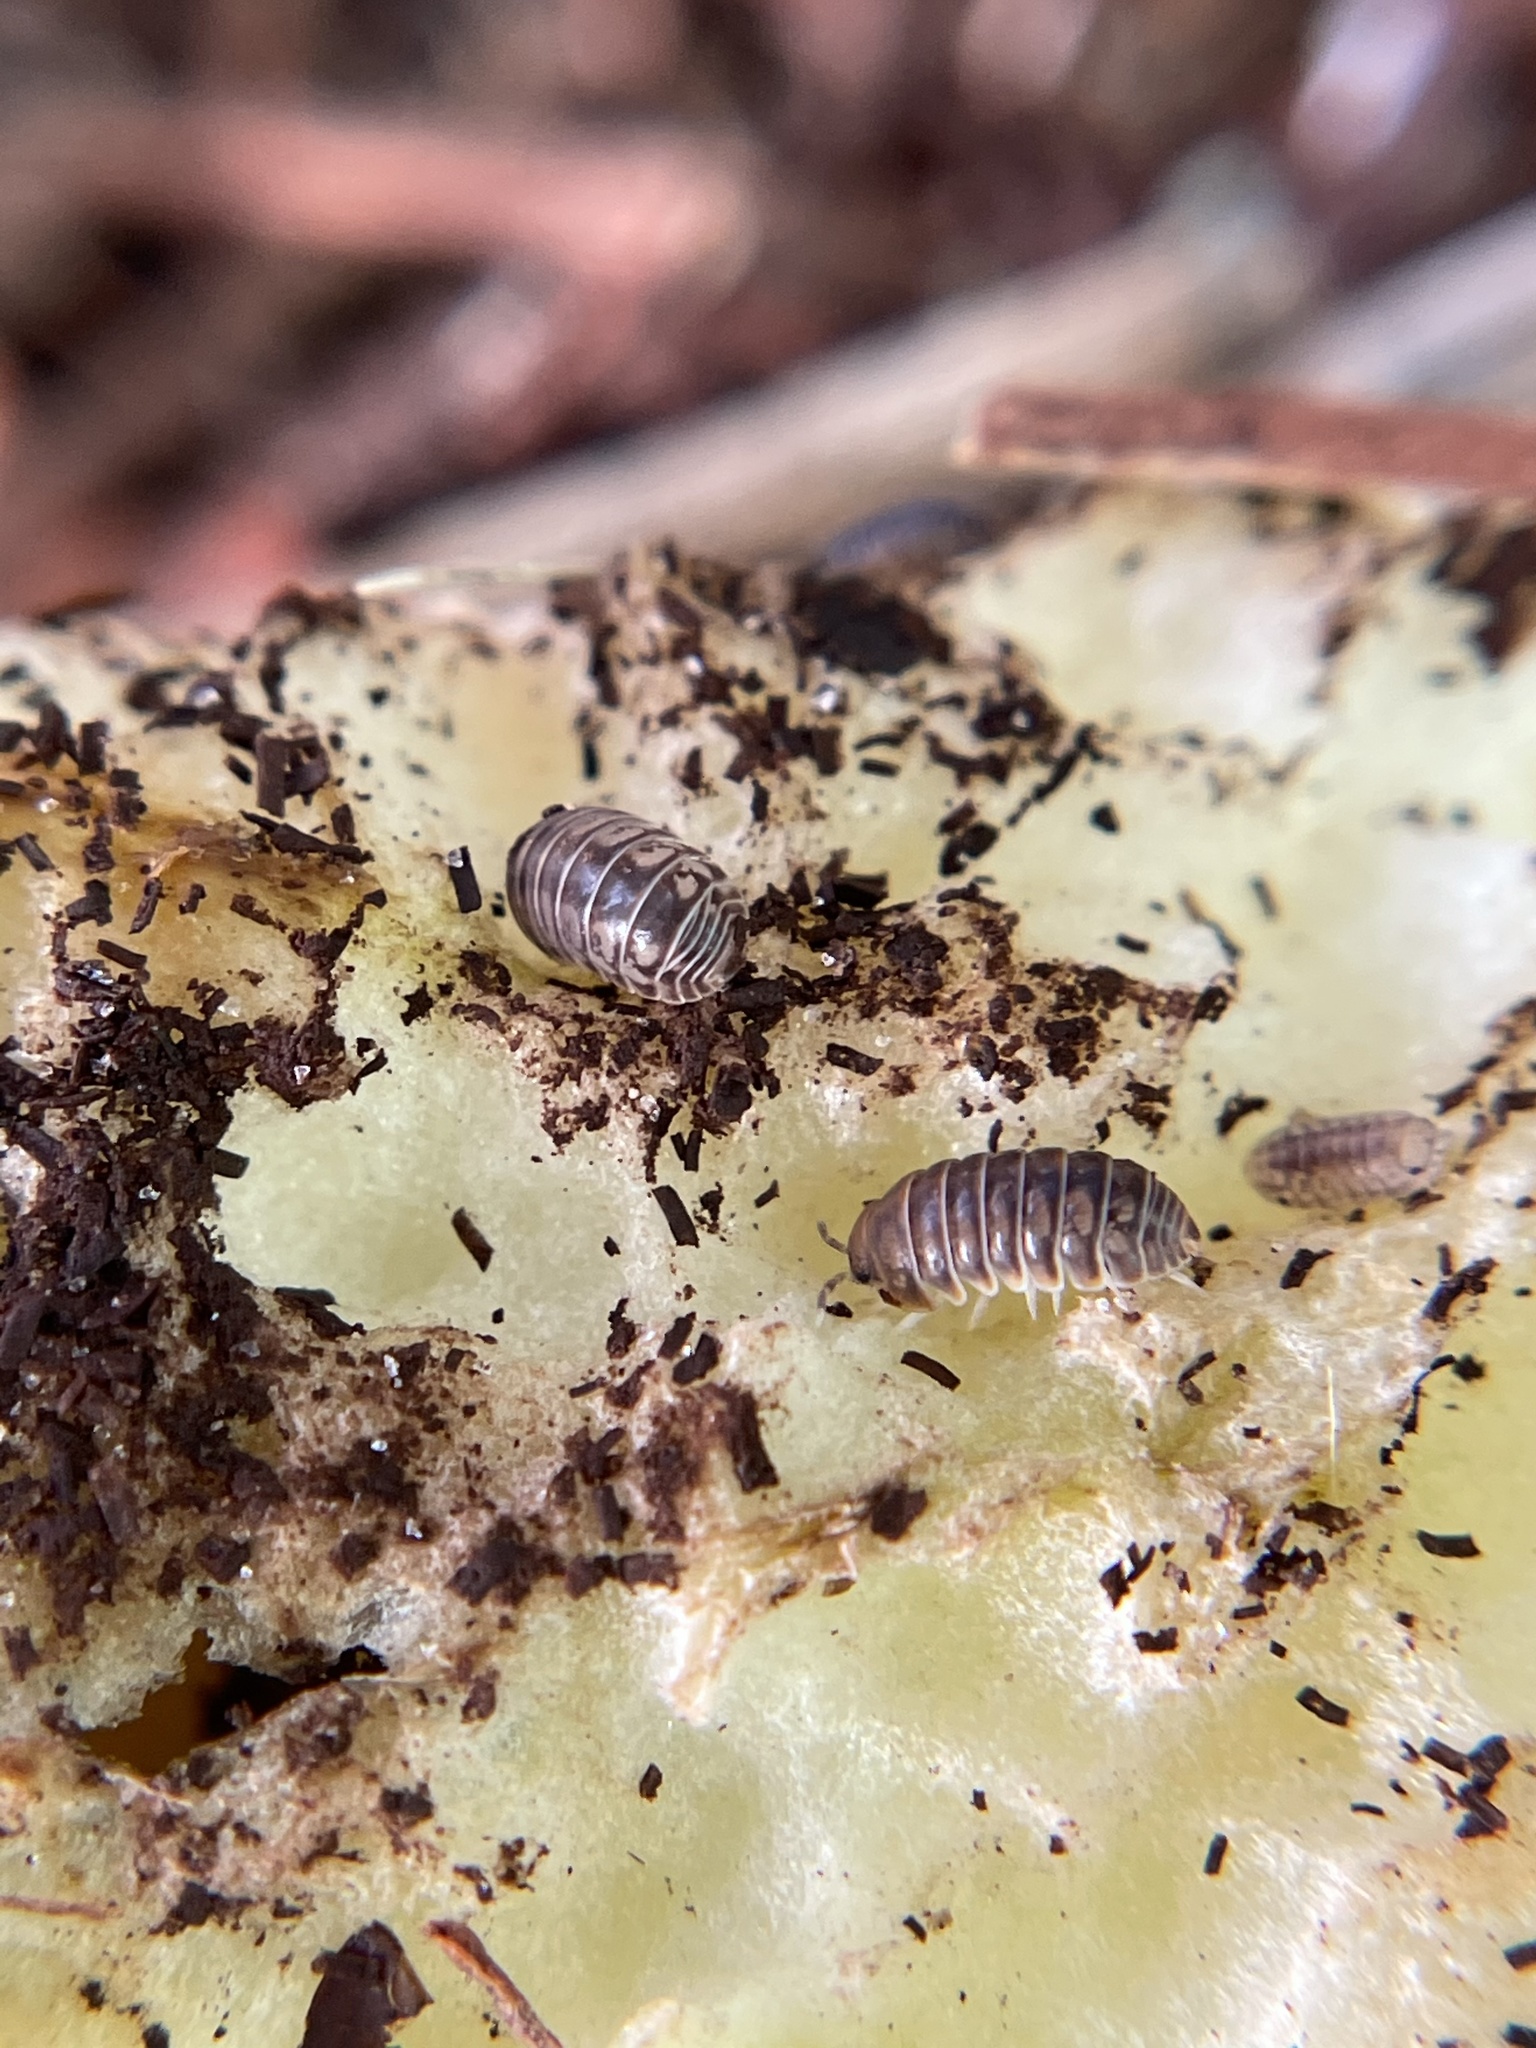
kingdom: Animalia
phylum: Arthropoda
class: Malacostraca
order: Isopoda
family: Armadillidae
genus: Venezillo
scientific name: Venezillo parvus
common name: Pillbug
